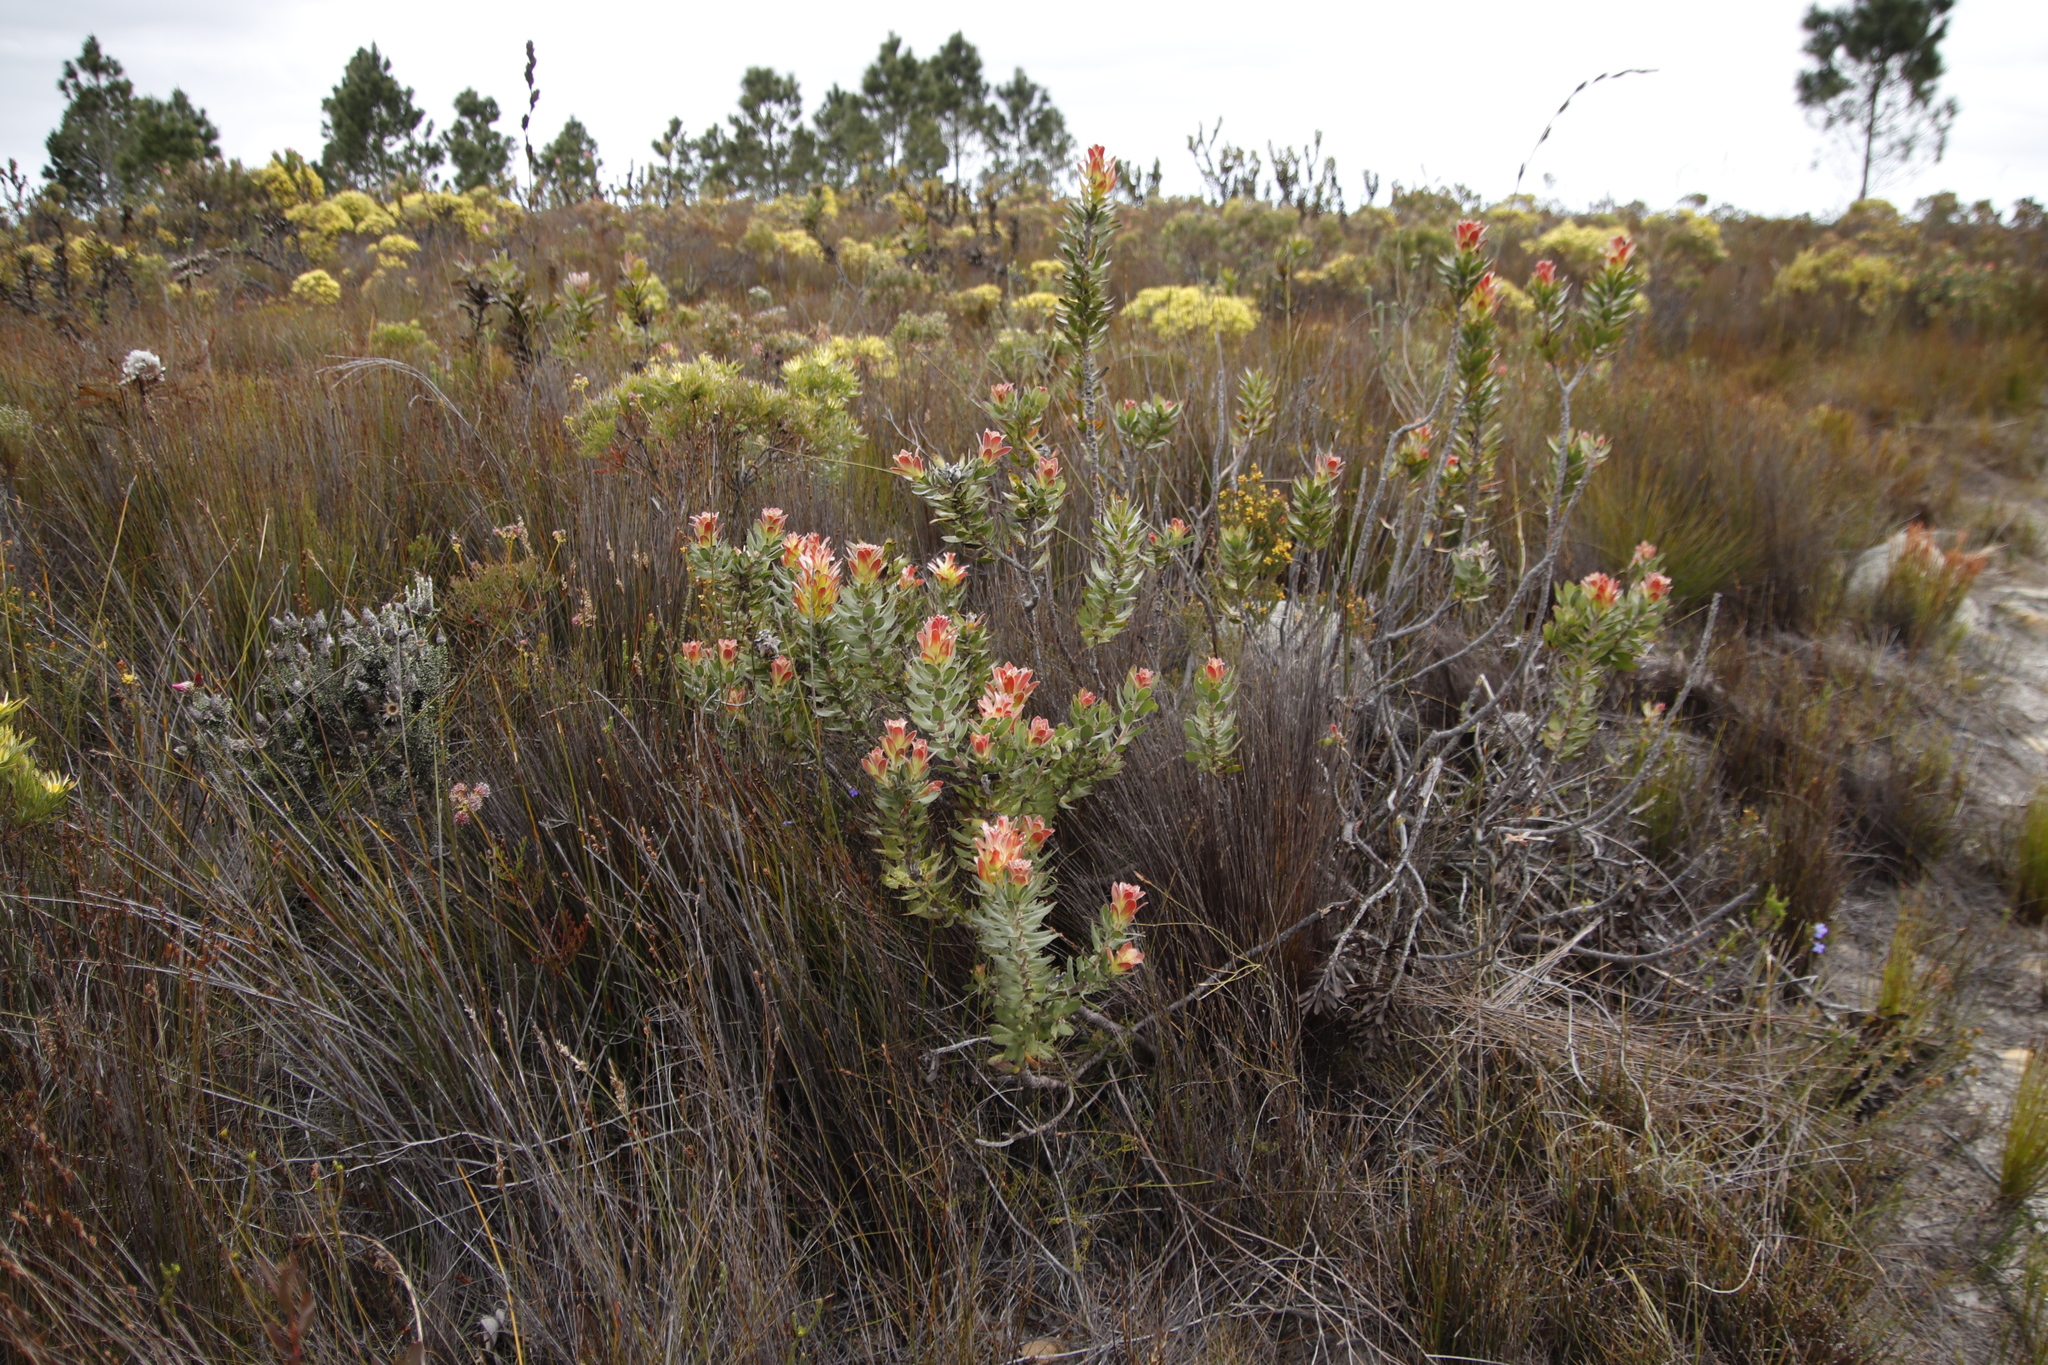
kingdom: Plantae
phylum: Tracheophyta
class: Magnoliopsida
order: Proteales
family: Proteaceae
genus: Mimetes
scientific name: Mimetes cucullatus
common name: Common pagoda
